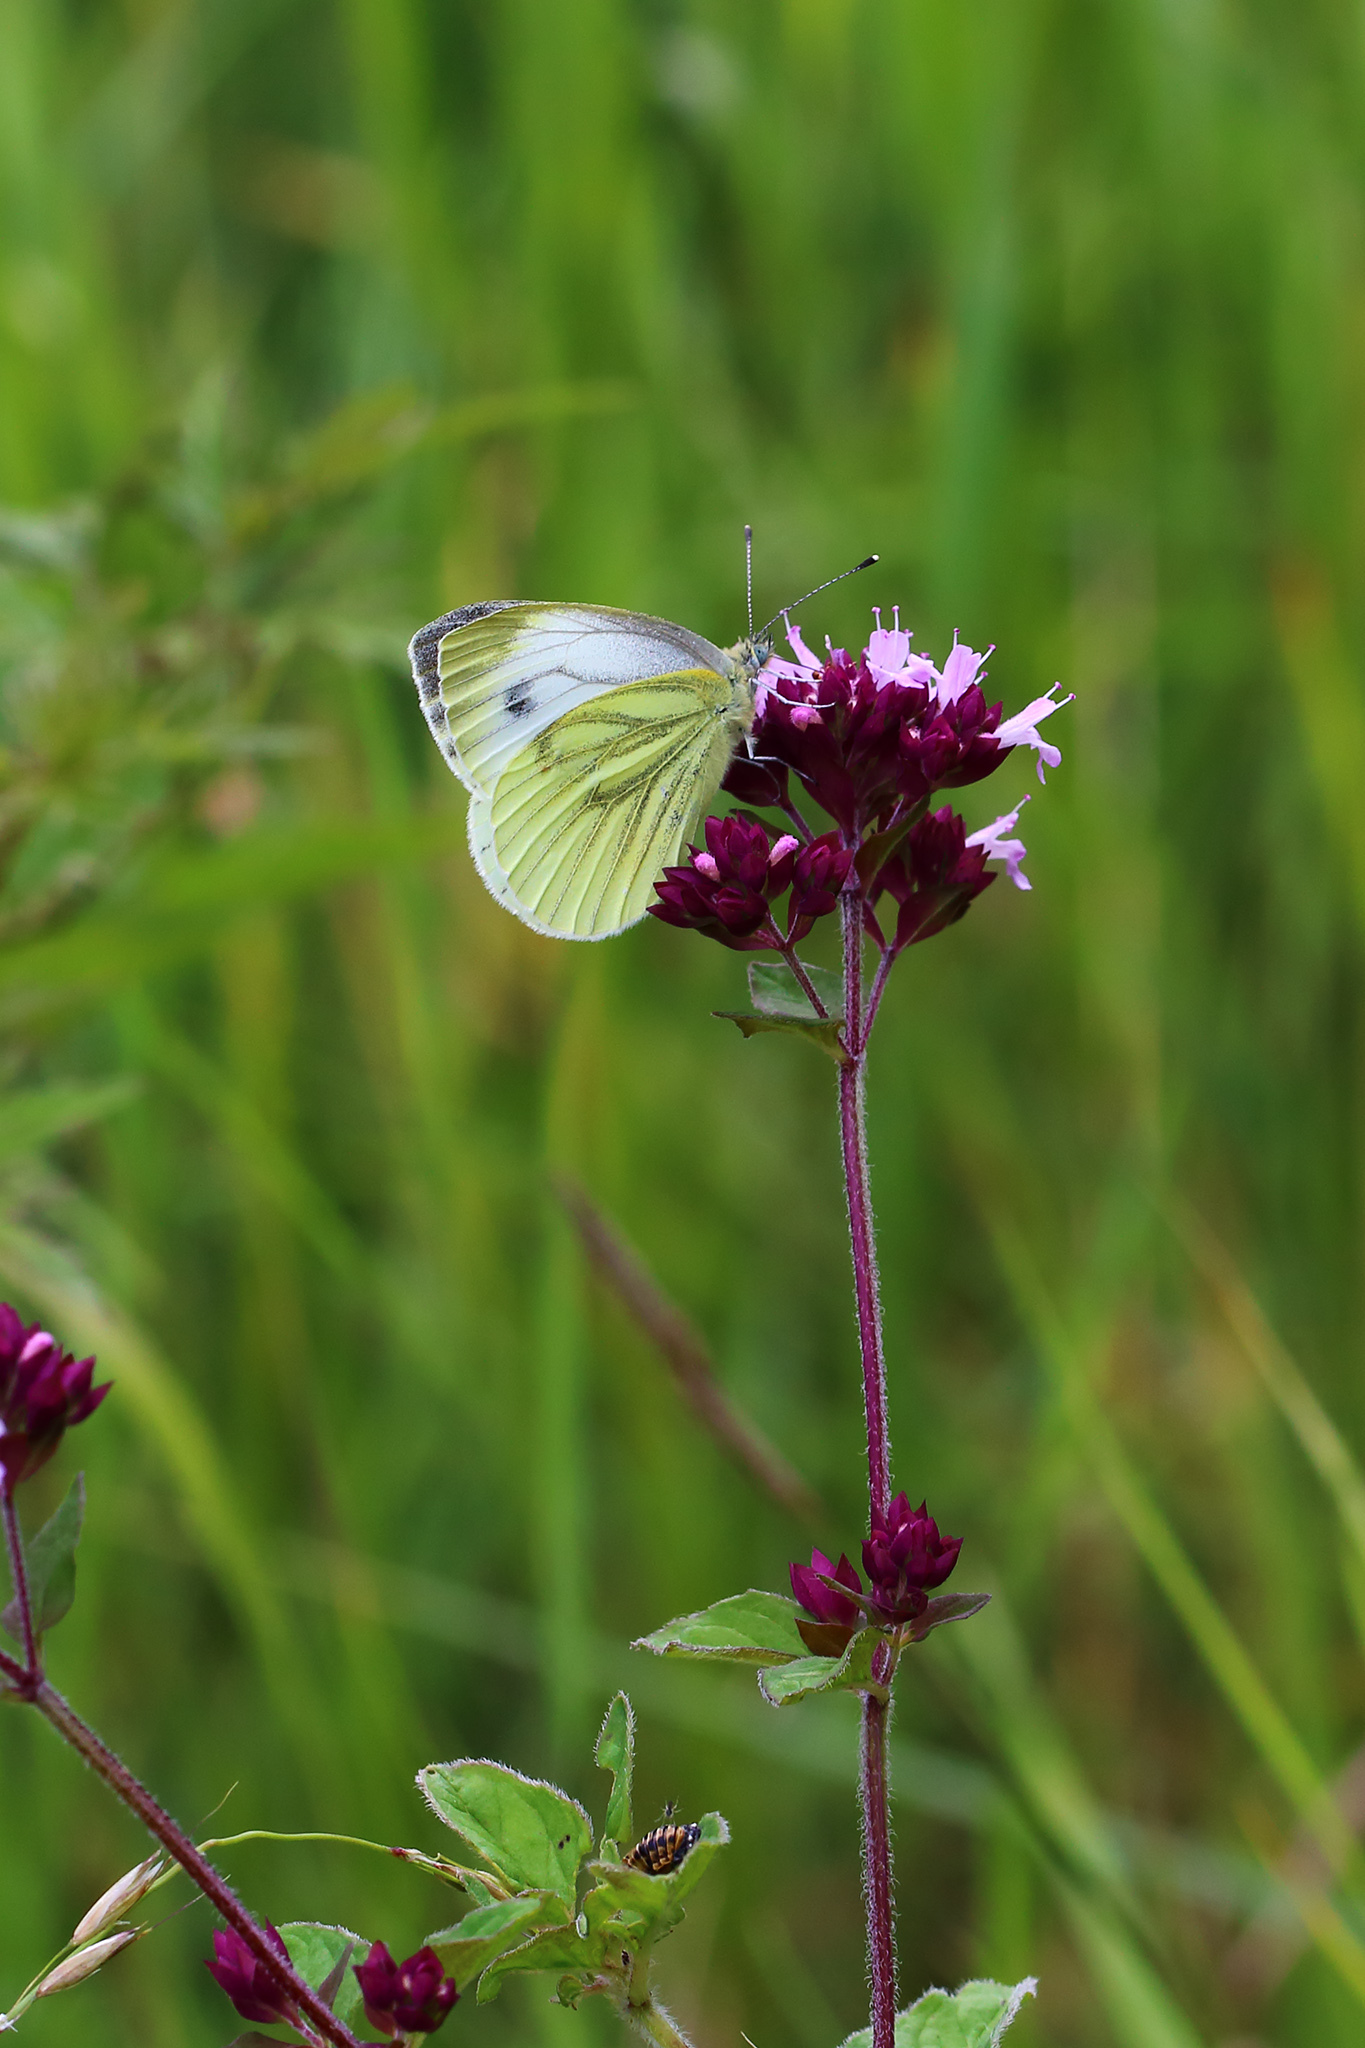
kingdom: Animalia
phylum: Arthropoda
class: Insecta
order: Lepidoptera
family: Pieridae
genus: Pieris
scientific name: Pieris napi
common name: Green-veined white
